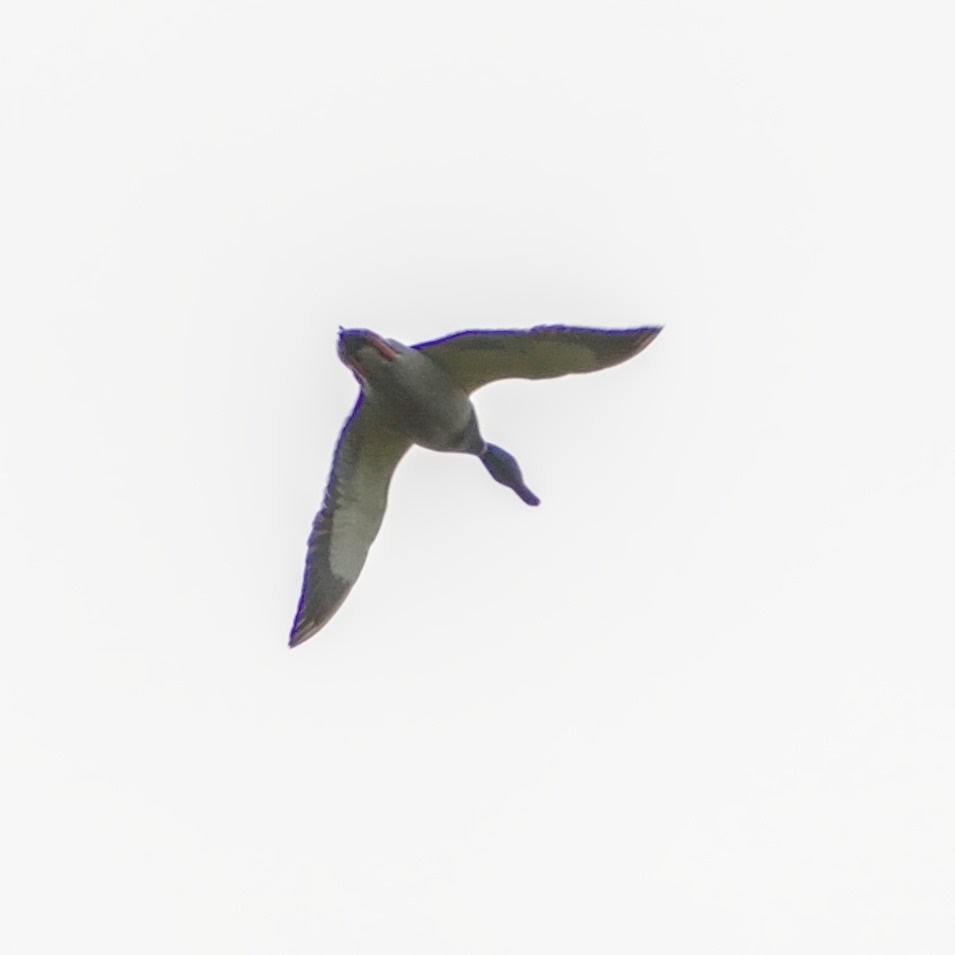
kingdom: Animalia
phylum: Chordata
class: Aves
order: Anseriformes
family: Anatidae
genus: Anas
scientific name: Anas platyrhynchos
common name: Mallard
